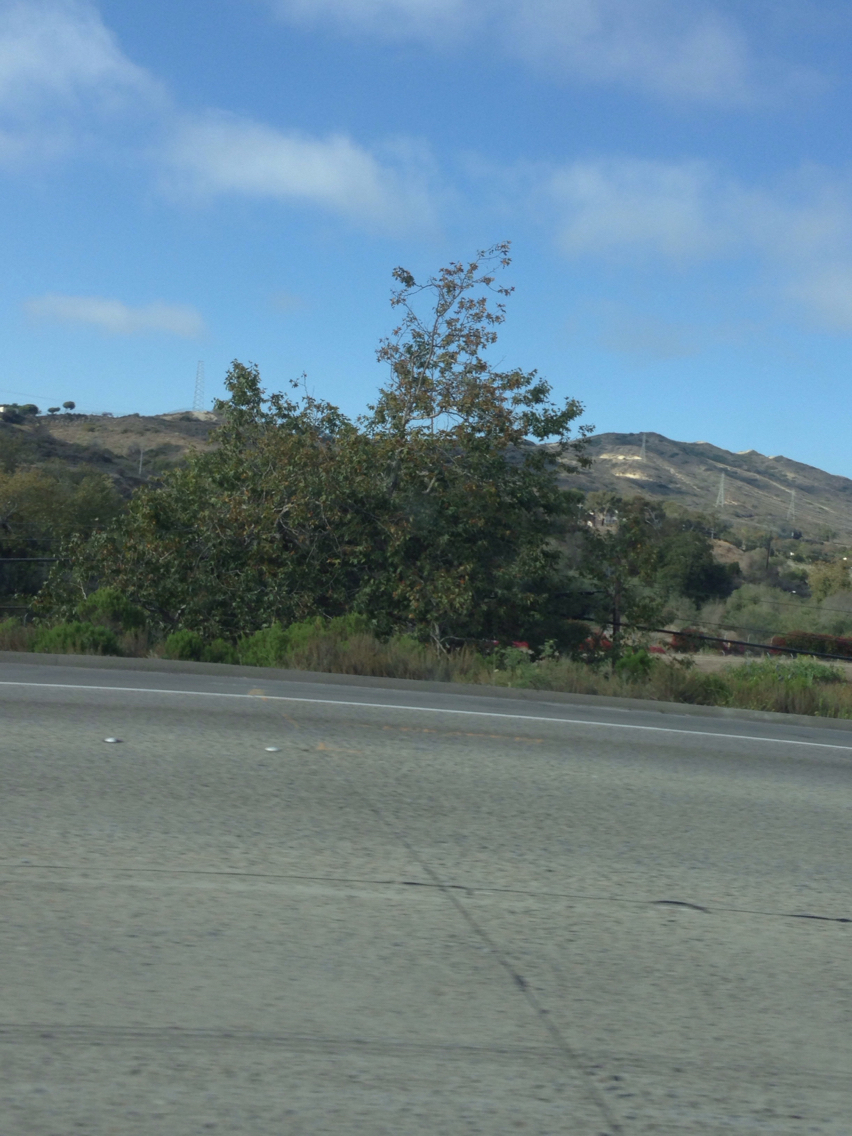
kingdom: Plantae
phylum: Tracheophyta
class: Magnoliopsida
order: Proteales
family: Platanaceae
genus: Platanus
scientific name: Platanus racemosa
